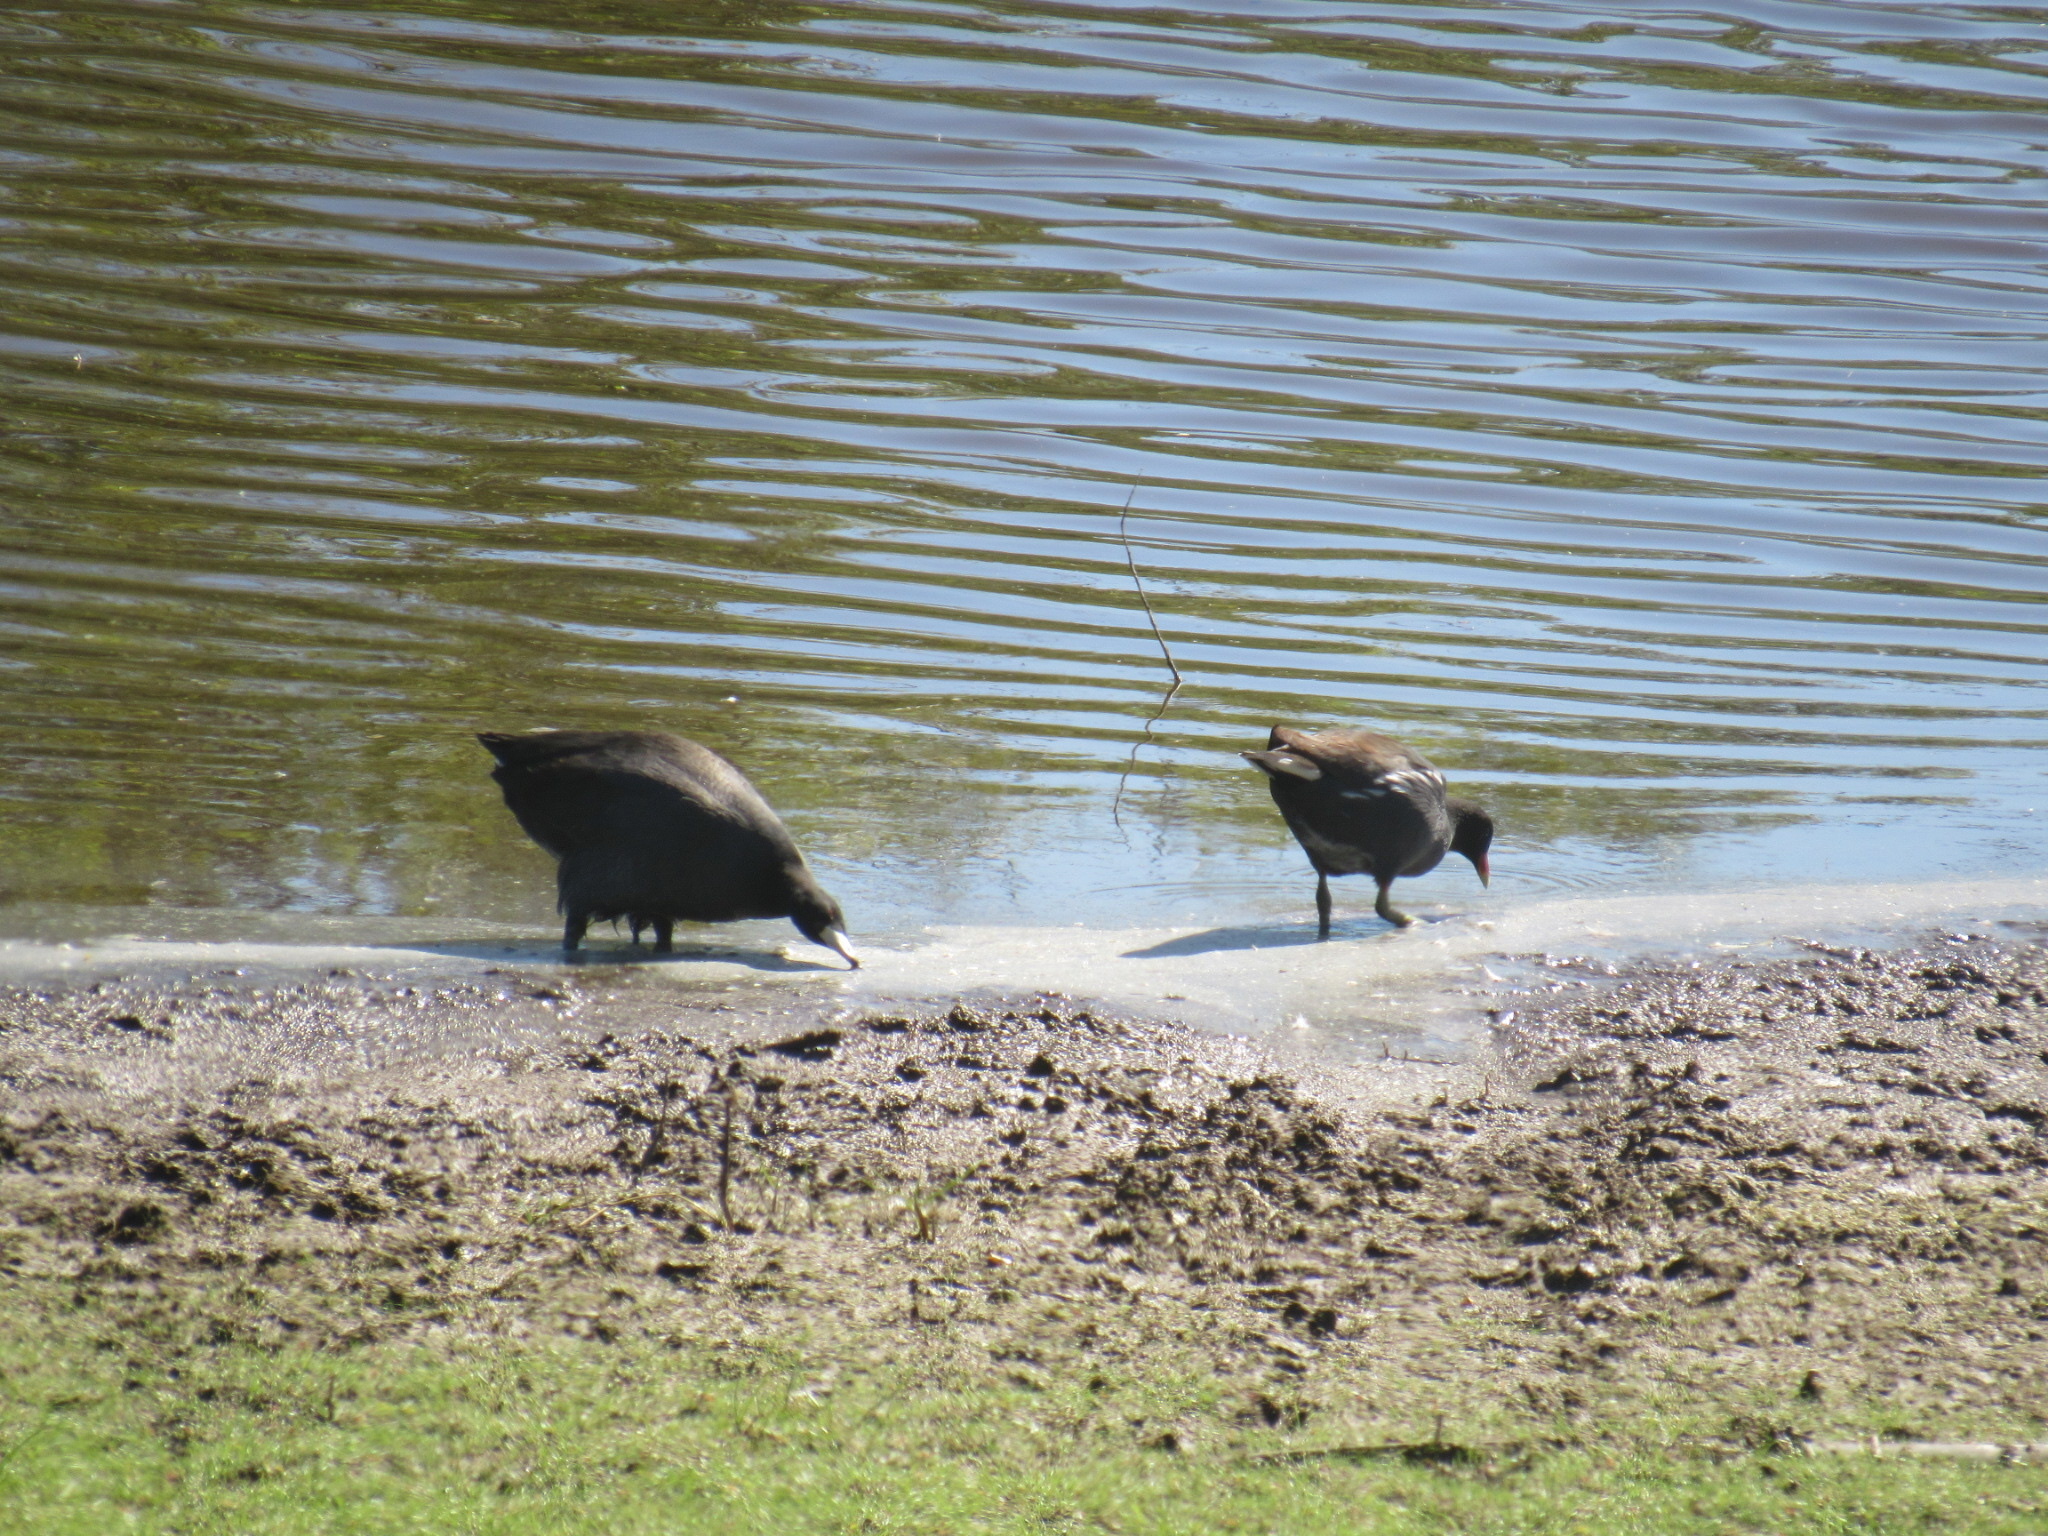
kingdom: Animalia
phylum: Chordata
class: Aves
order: Gruiformes
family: Rallidae
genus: Fulica
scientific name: Fulica americana
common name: American coot
